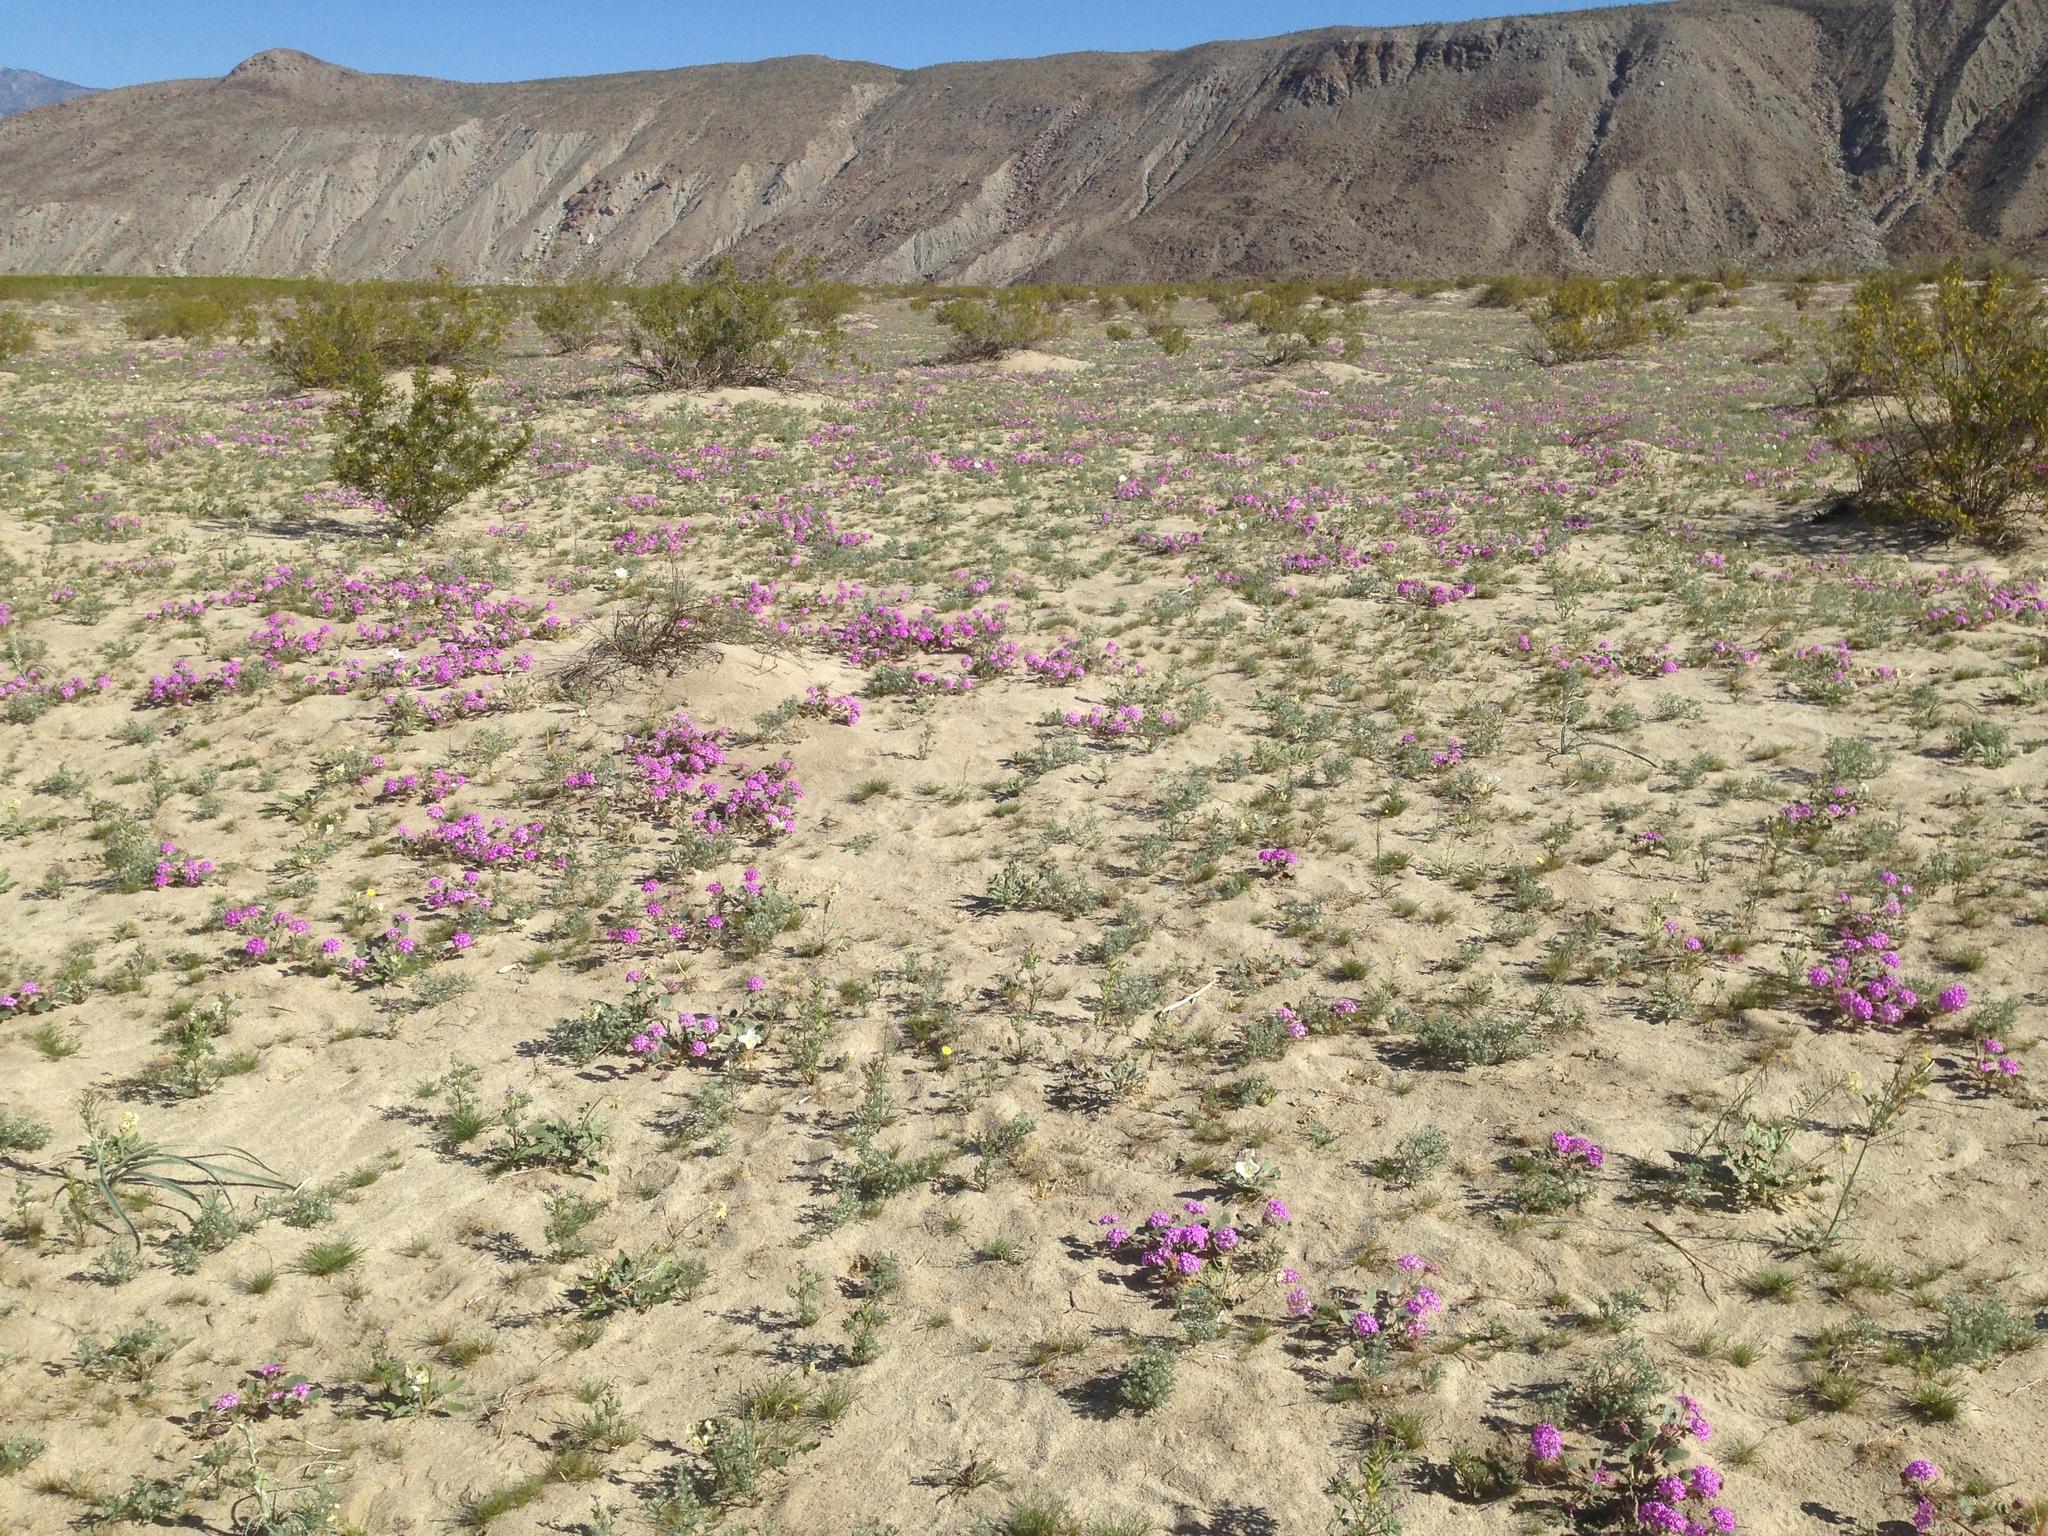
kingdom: Plantae
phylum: Tracheophyta
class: Magnoliopsida
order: Caryophyllales
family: Nyctaginaceae
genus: Abronia
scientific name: Abronia villosa
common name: Desert sand-verbena
